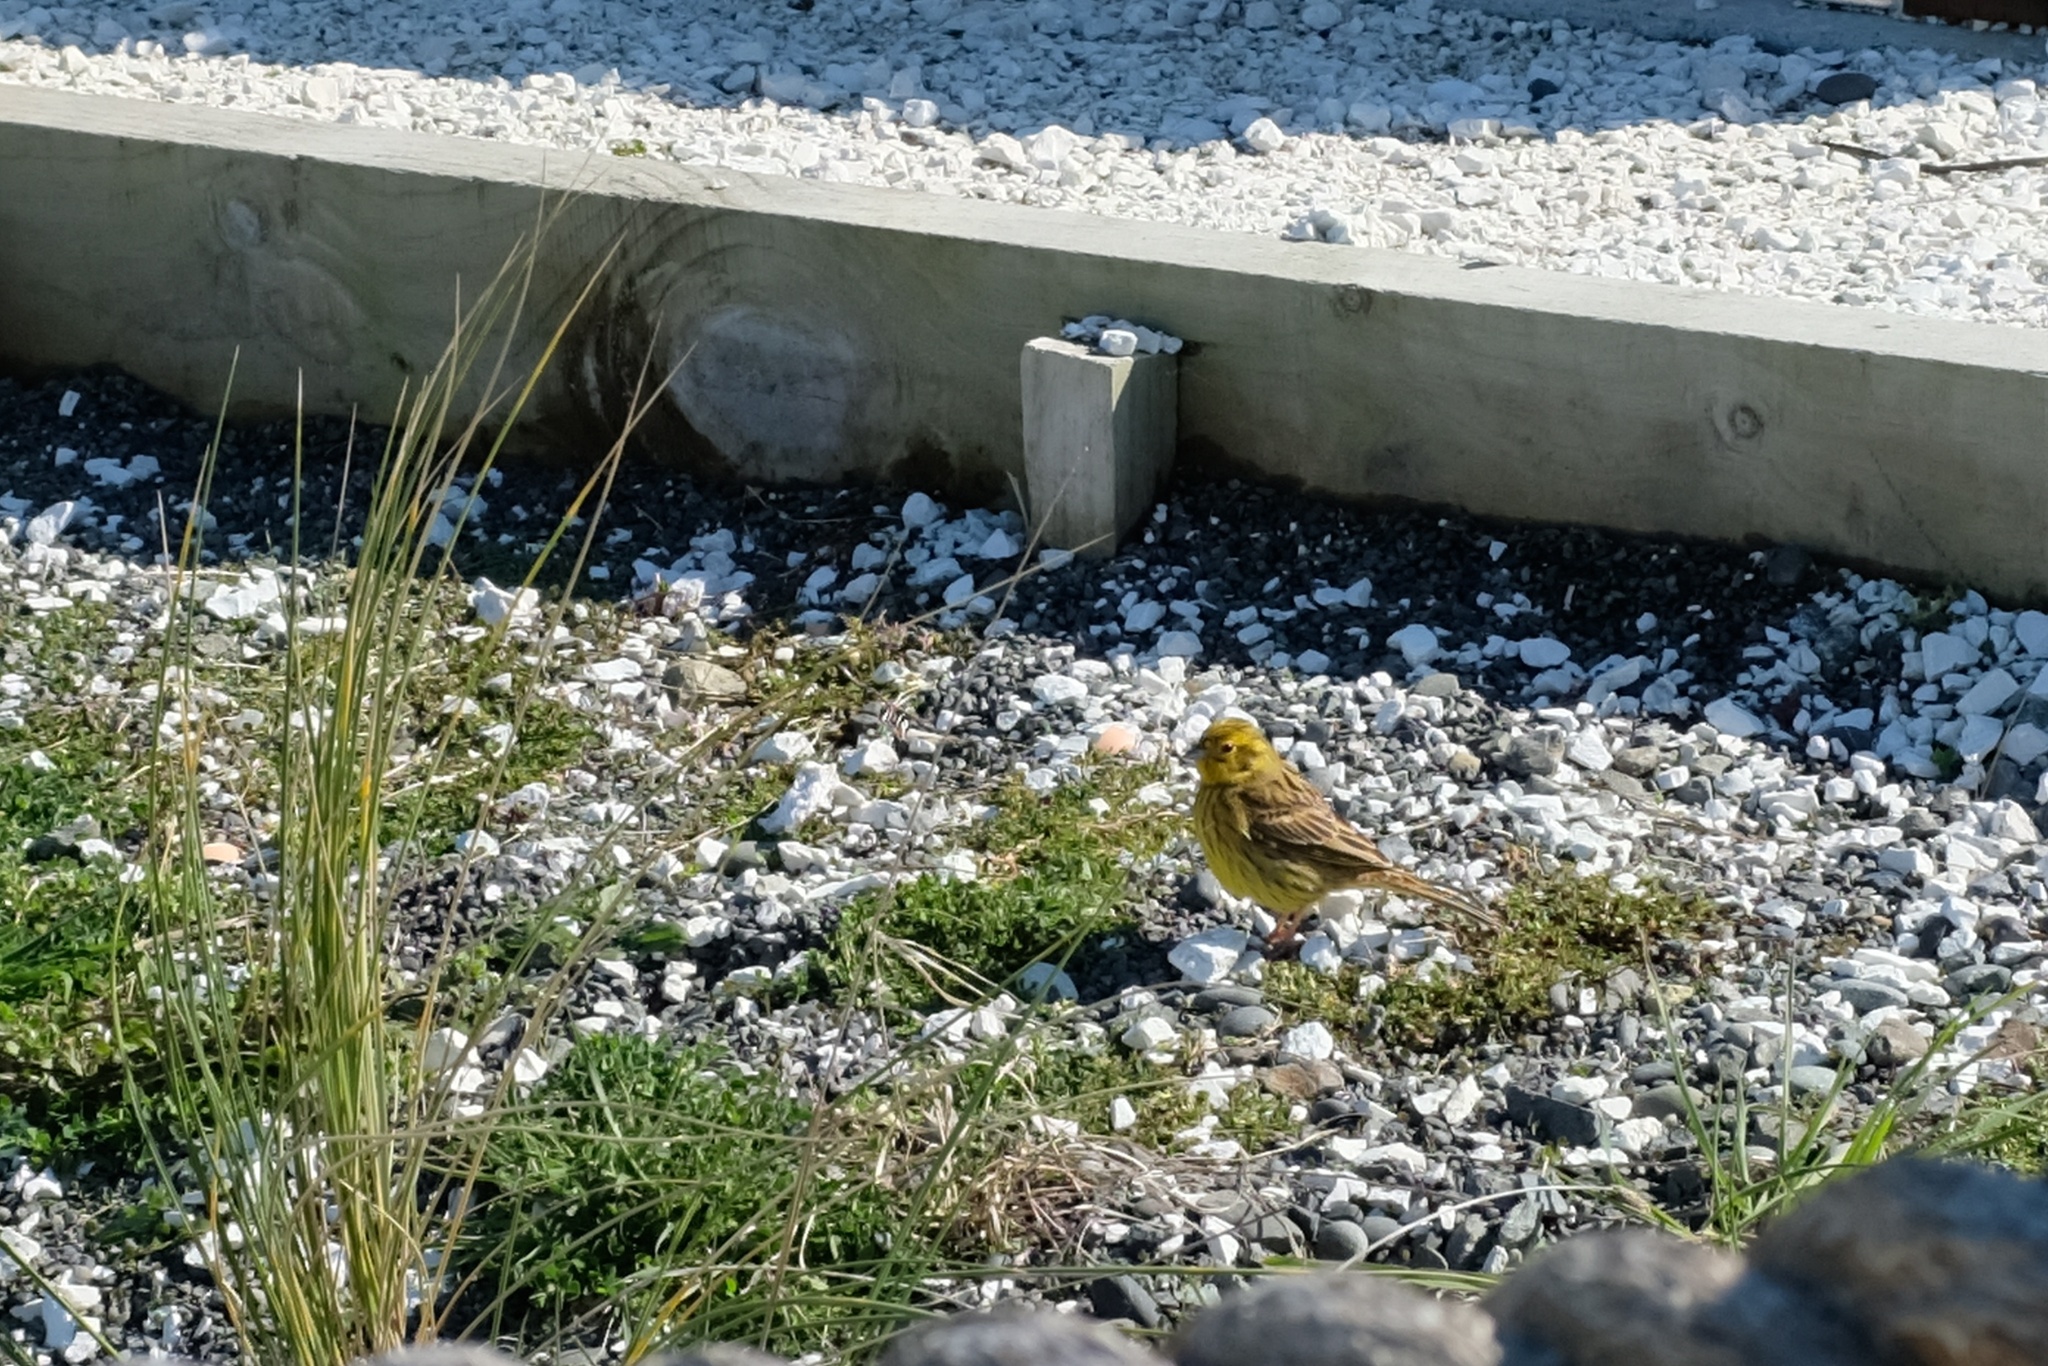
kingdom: Animalia
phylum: Chordata
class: Aves
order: Passeriformes
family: Emberizidae
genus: Emberiza
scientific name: Emberiza citrinella
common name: Yellowhammer
